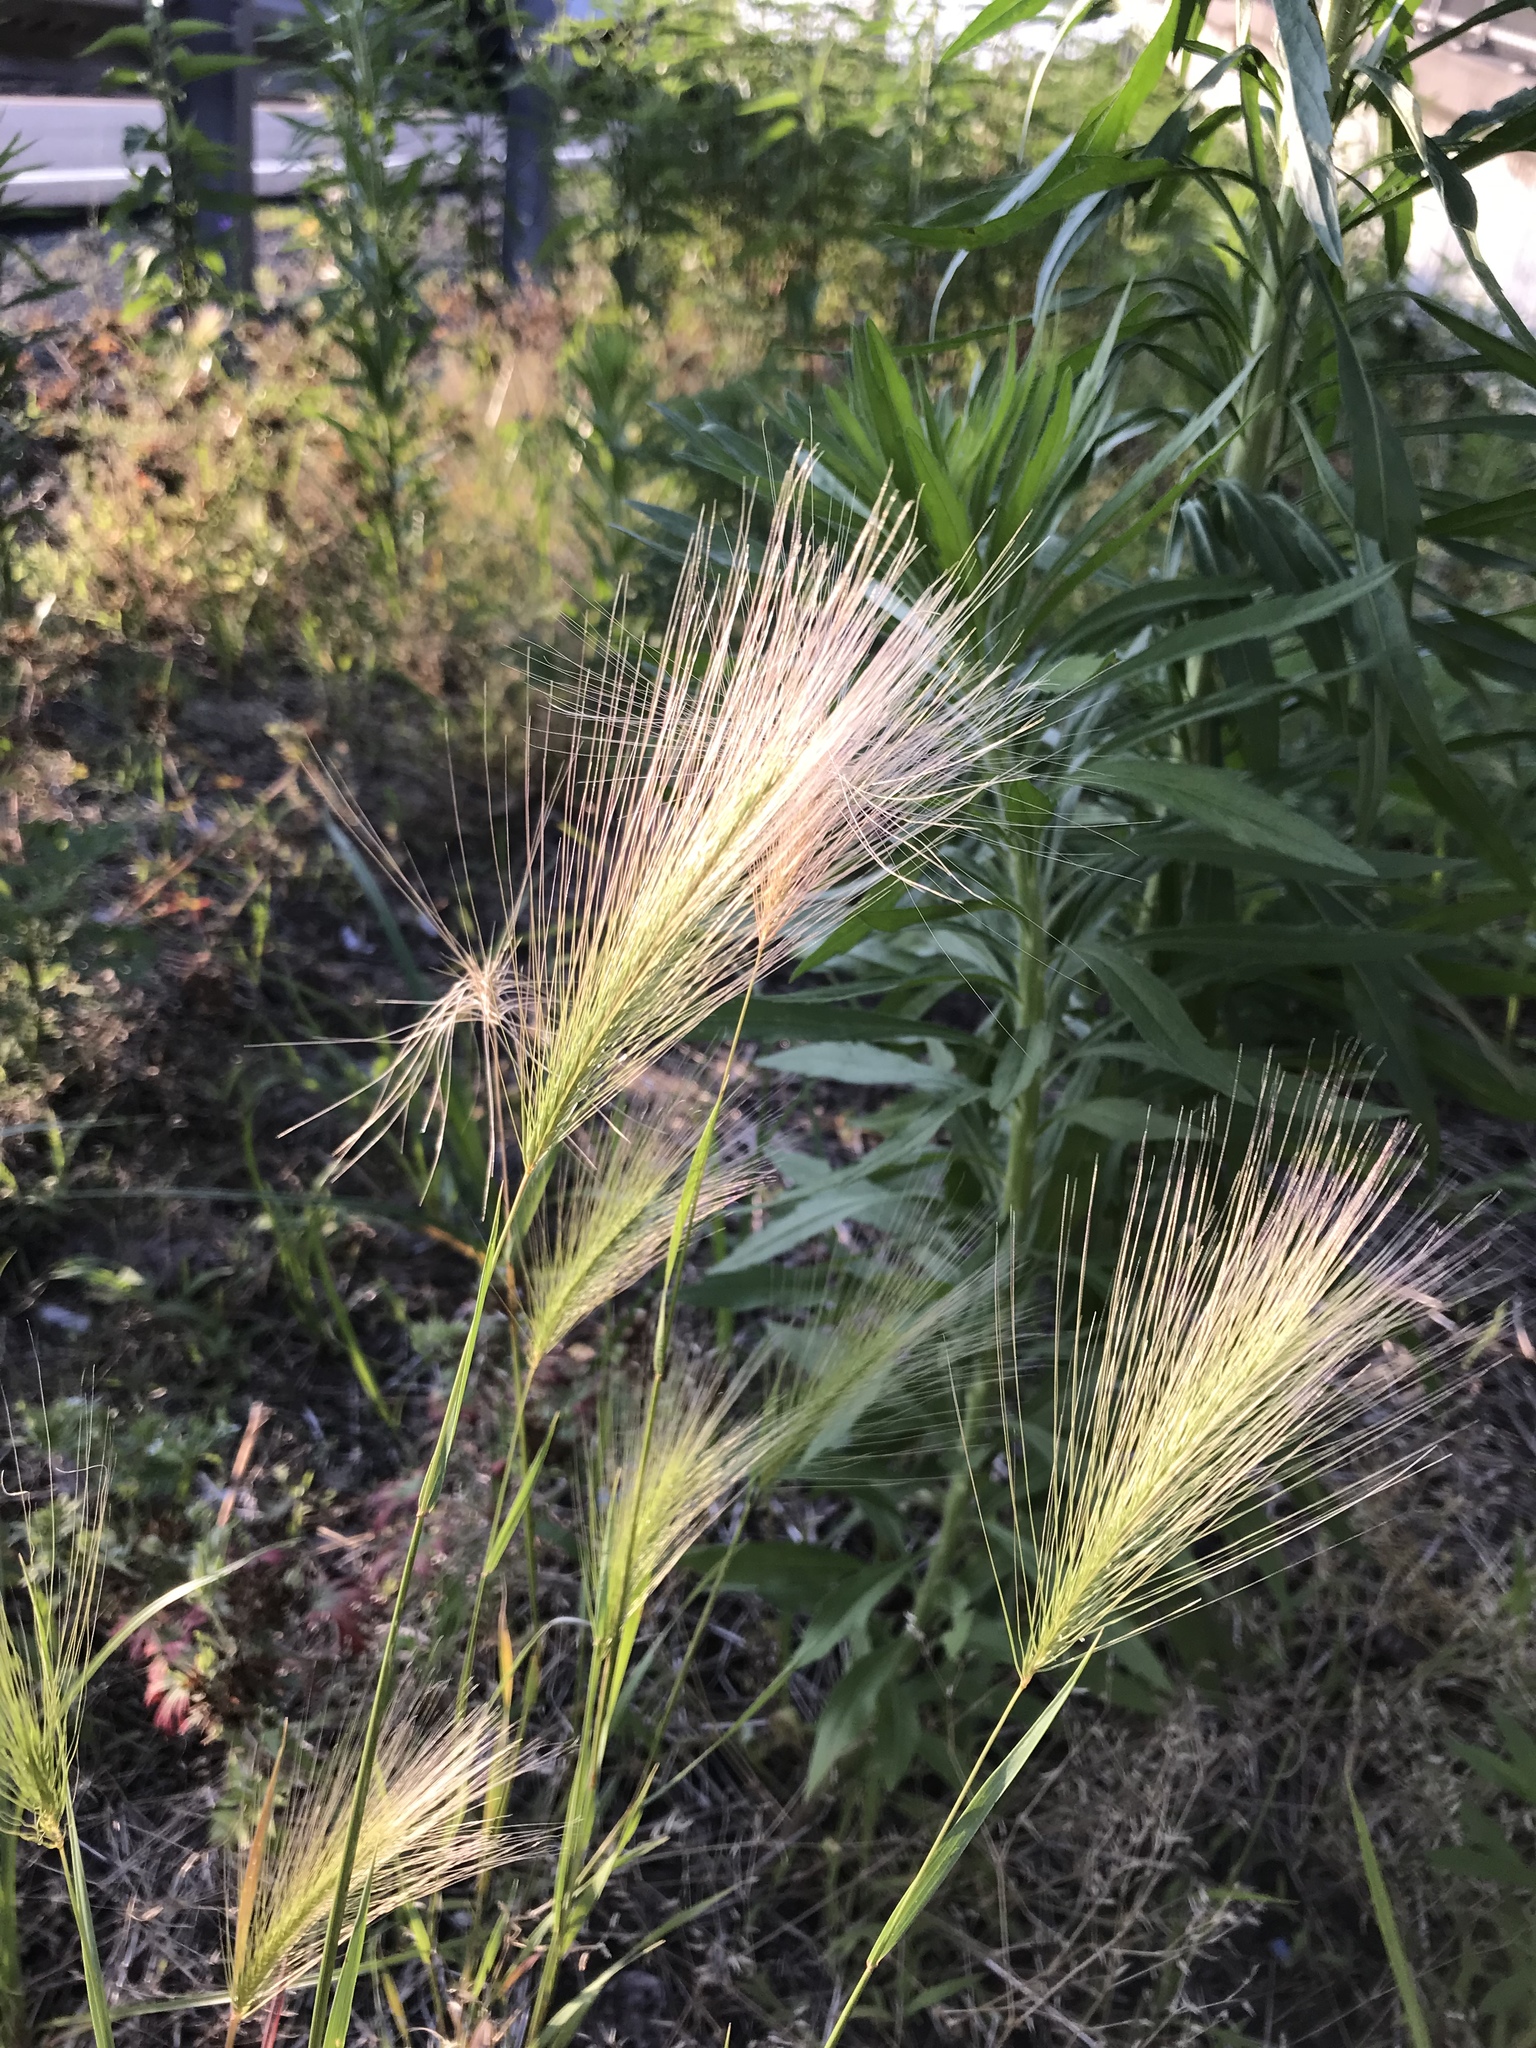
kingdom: Plantae
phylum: Tracheophyta
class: Liliopsida
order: Poales
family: Poaceae
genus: Hordeum
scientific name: Hordeum jubatum
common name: Foxtail barley
